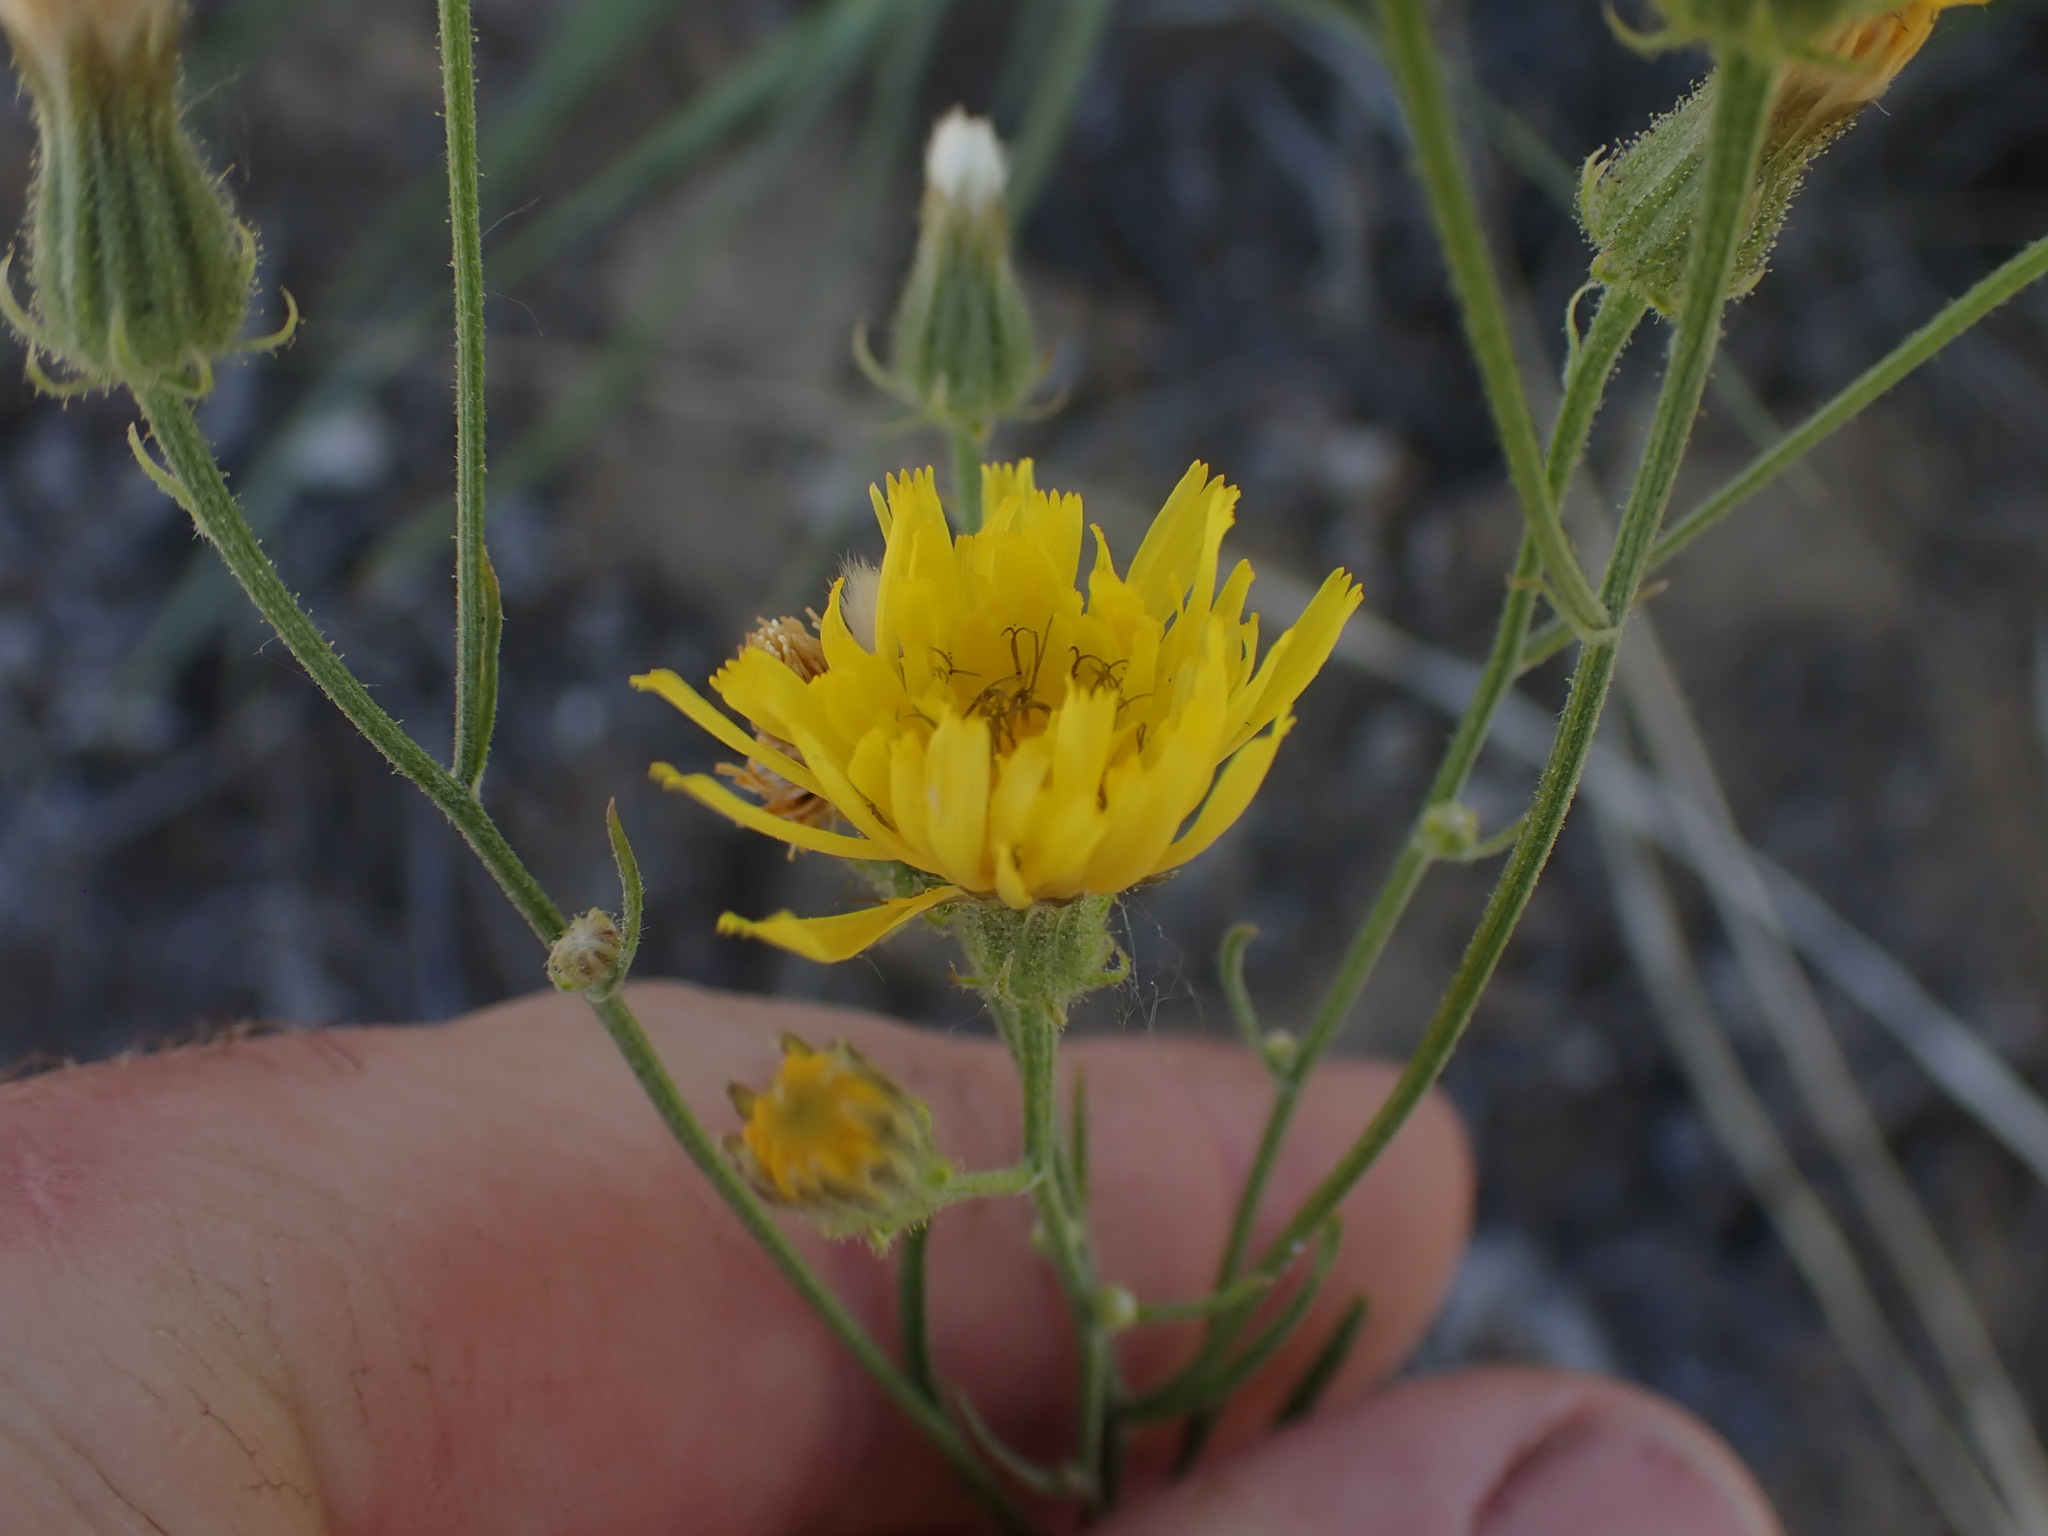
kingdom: Plantae
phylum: Tracheophyta
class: Magnoliopsida
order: Asterales
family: Asteraceae
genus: Crepis
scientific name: Crepis tectorum
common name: Narrow-leaved hawk's-beard
